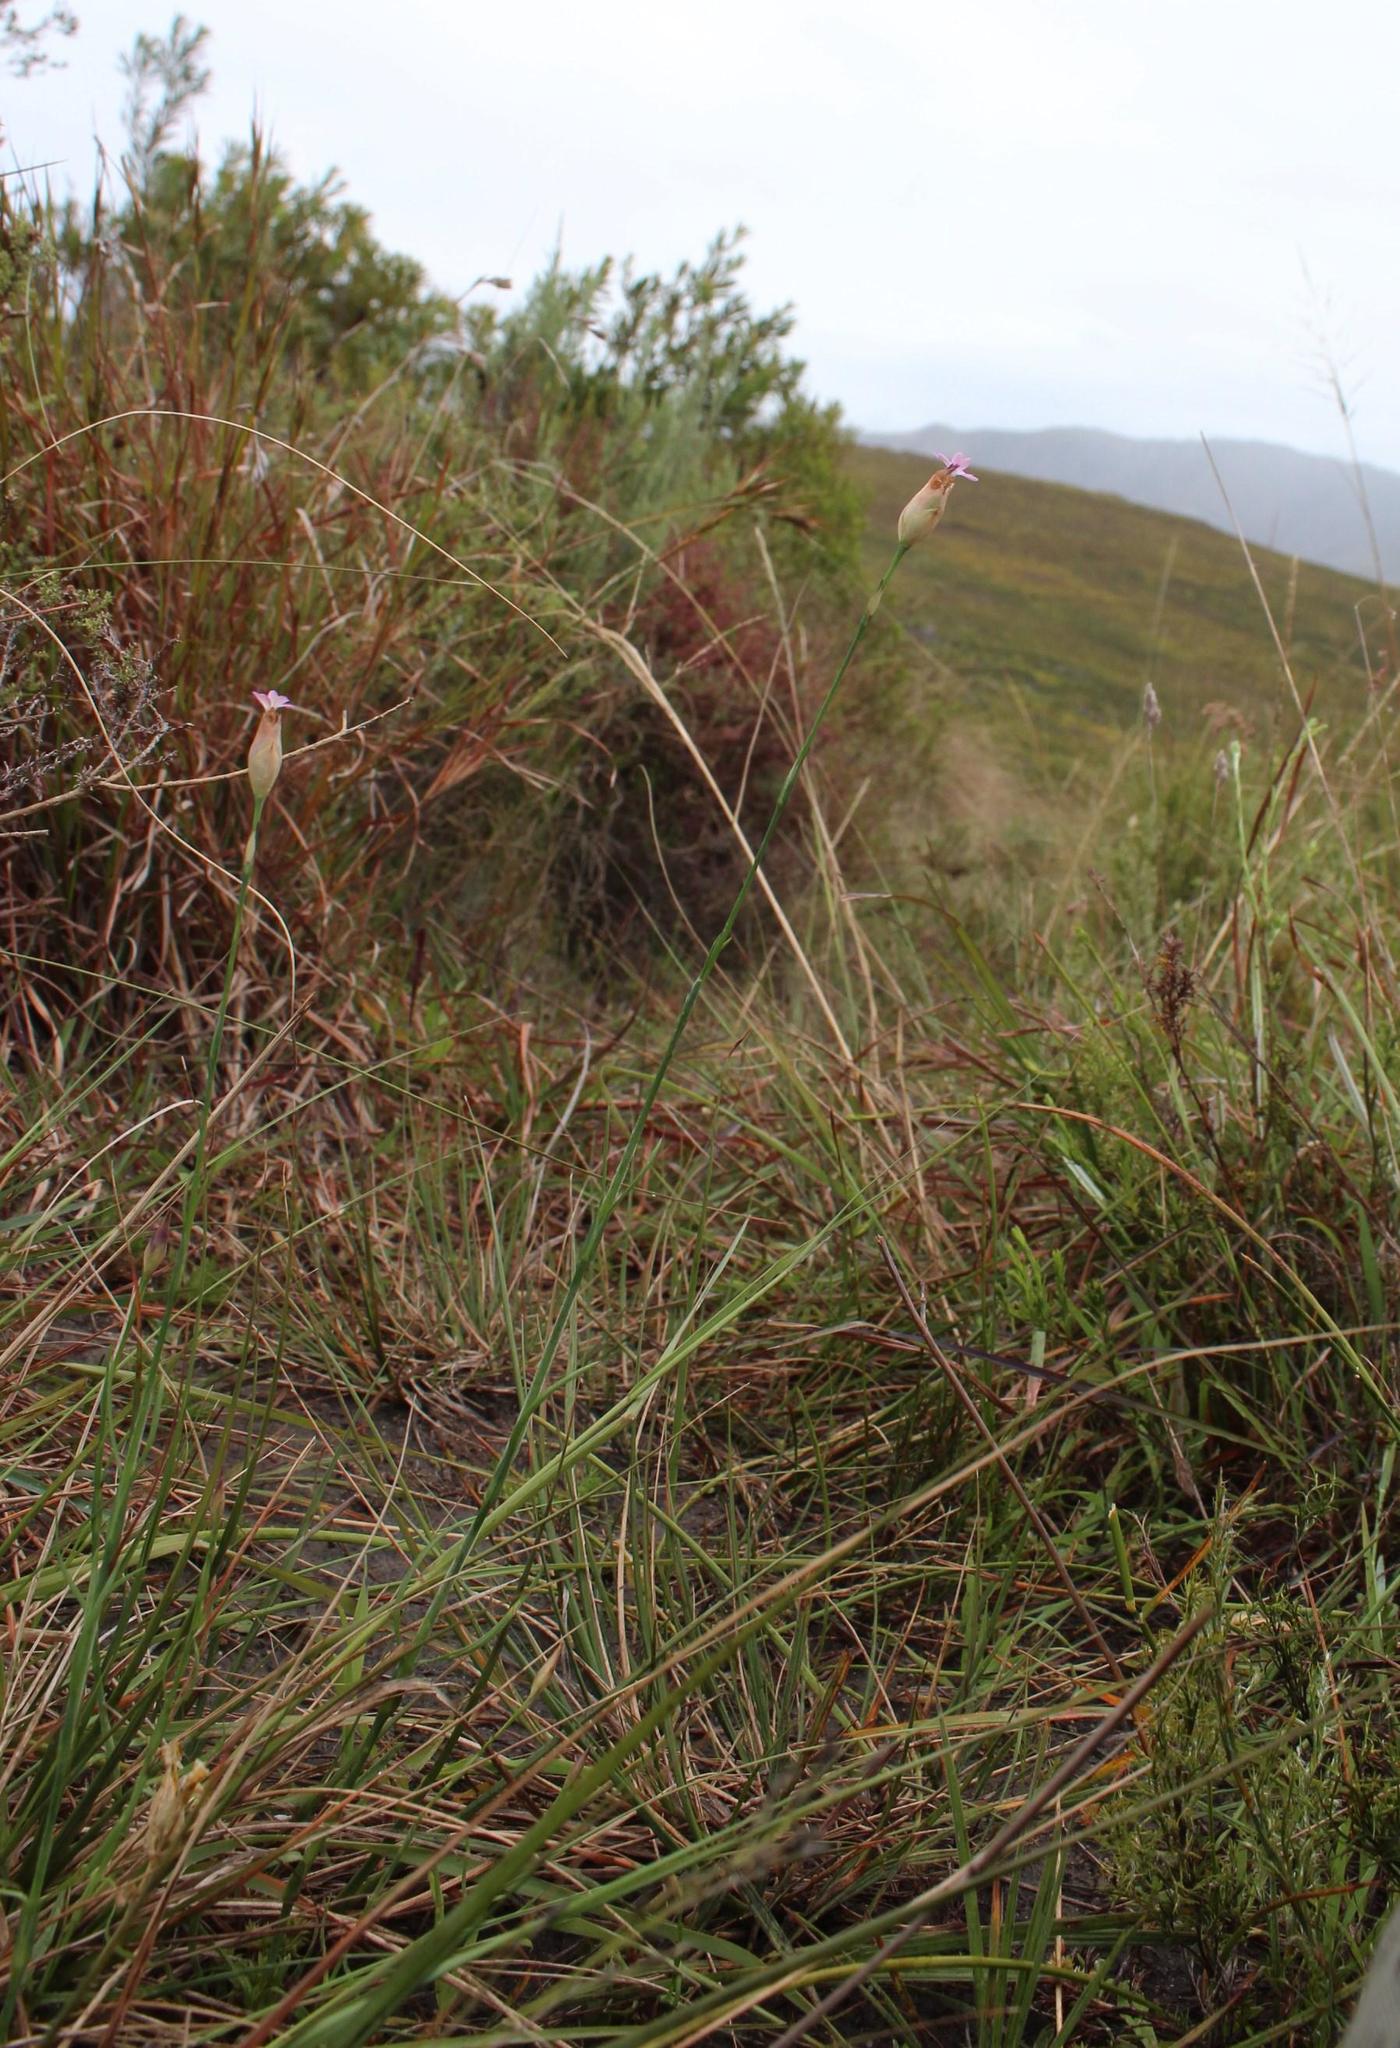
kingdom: Plantae
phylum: Tracheophyta
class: Magnoliopsida
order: Caryophyllales
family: Caryophyllaceae
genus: Petrorhagia
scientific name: Petrorhagia dubia
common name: Hairypink
